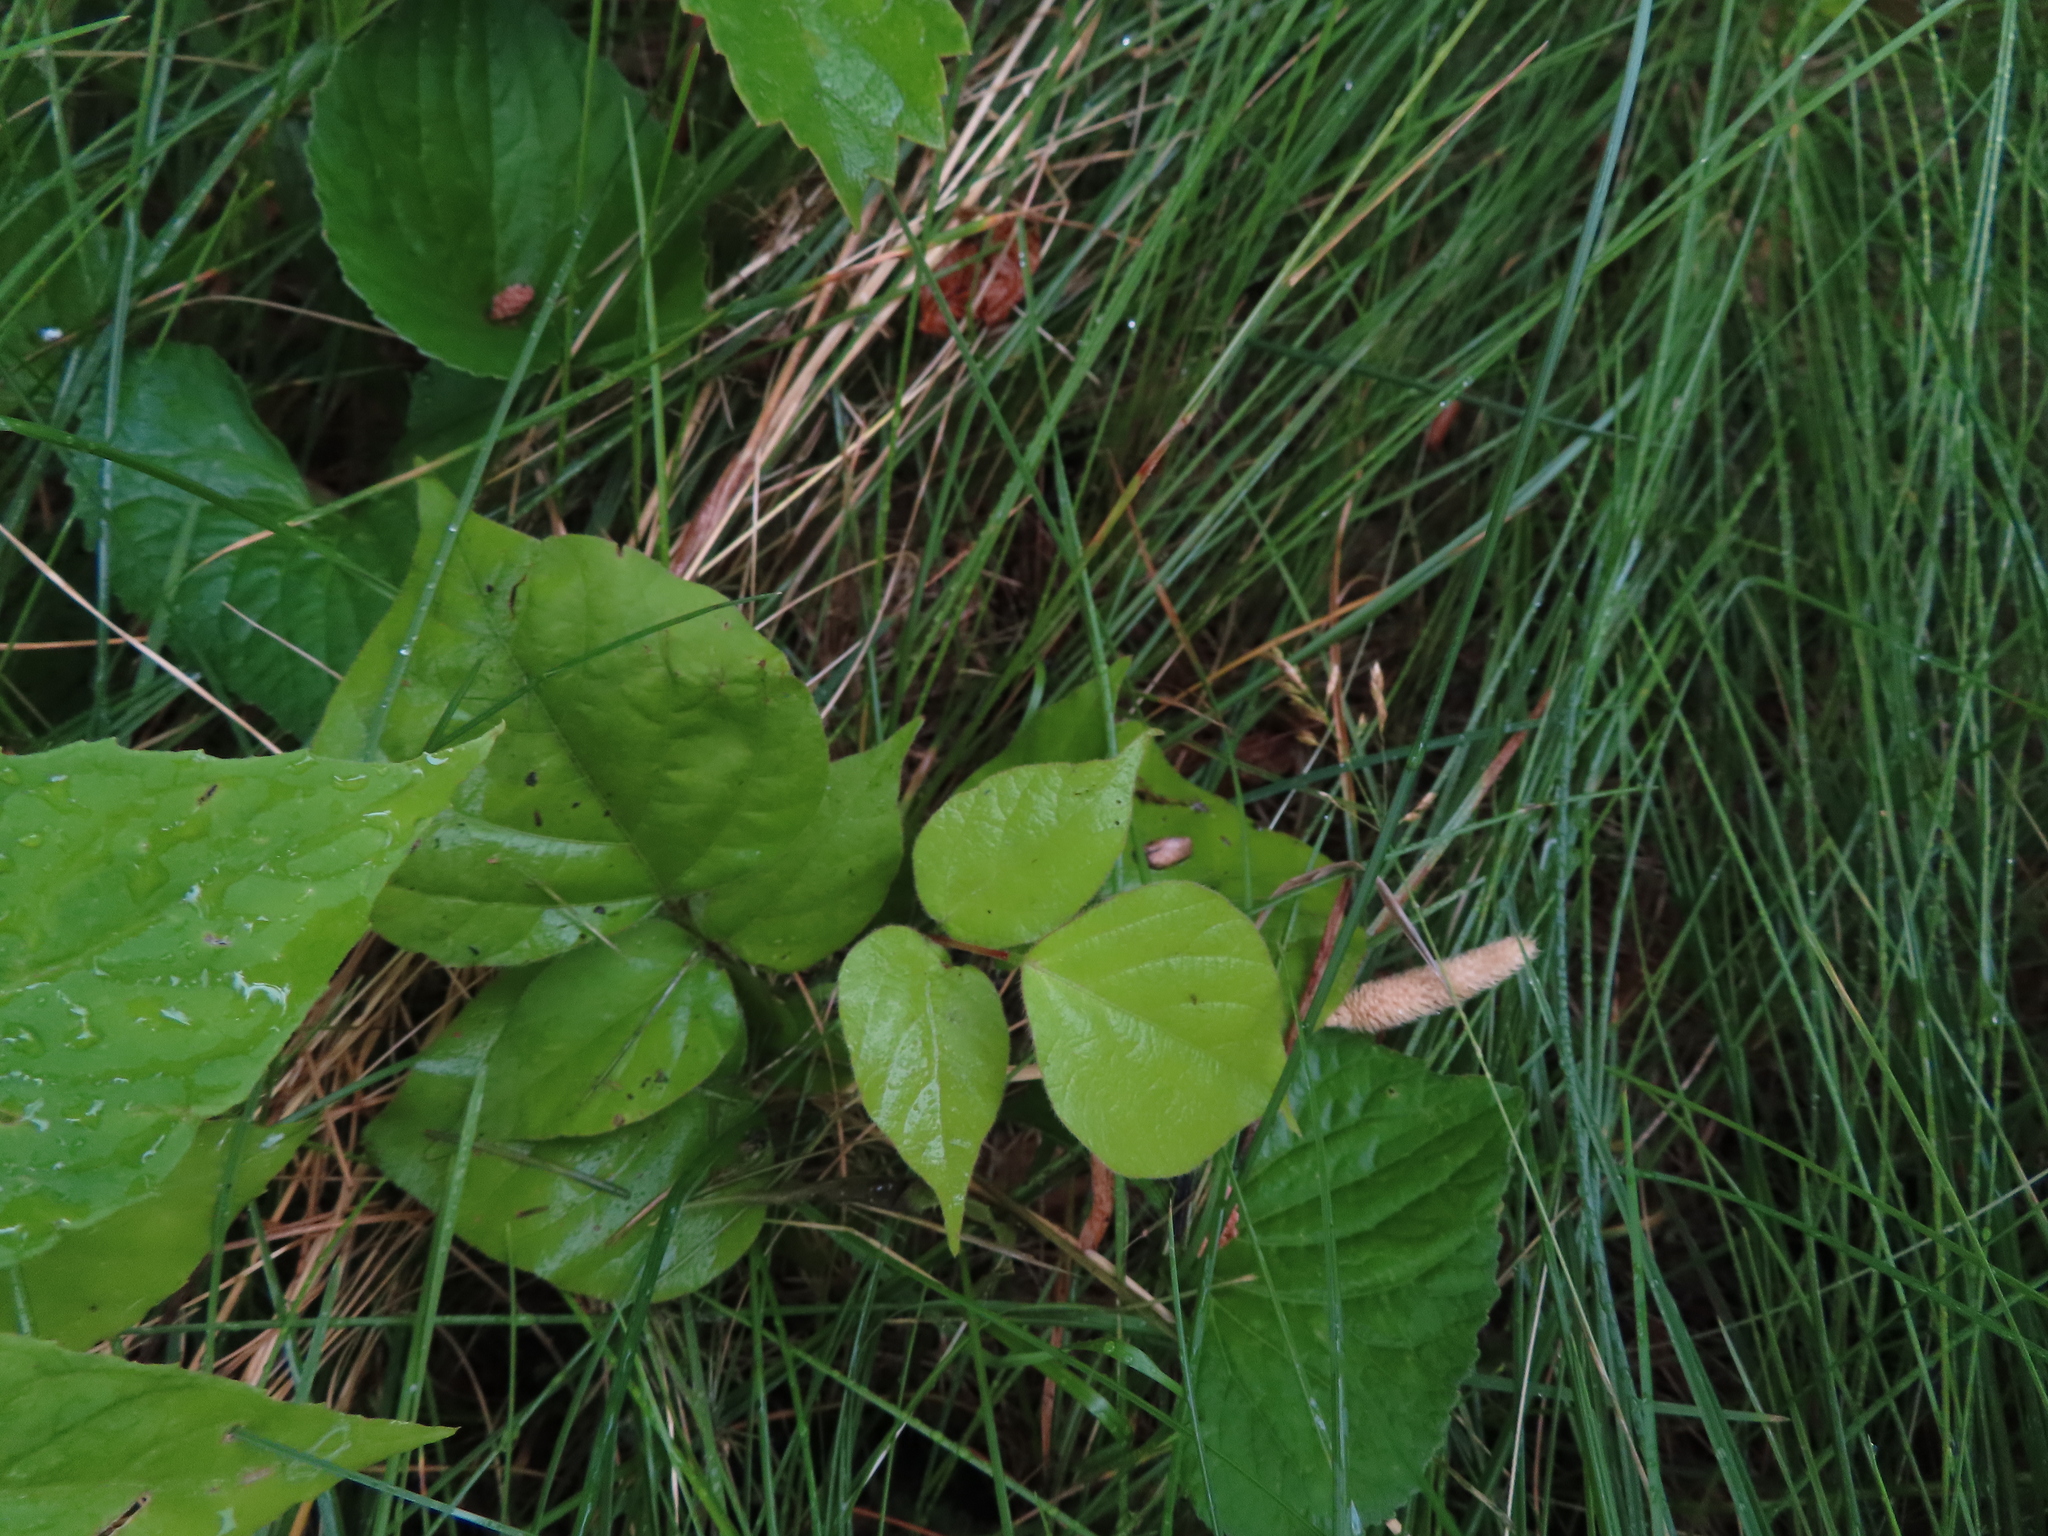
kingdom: Plantae
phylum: Tracheophyta
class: Magnoliopsida
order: Fabales
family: Fabaceae
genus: Hylodesmum
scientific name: Hylodesmum glutinosum
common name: Clustered-leaved tick-trefoil
